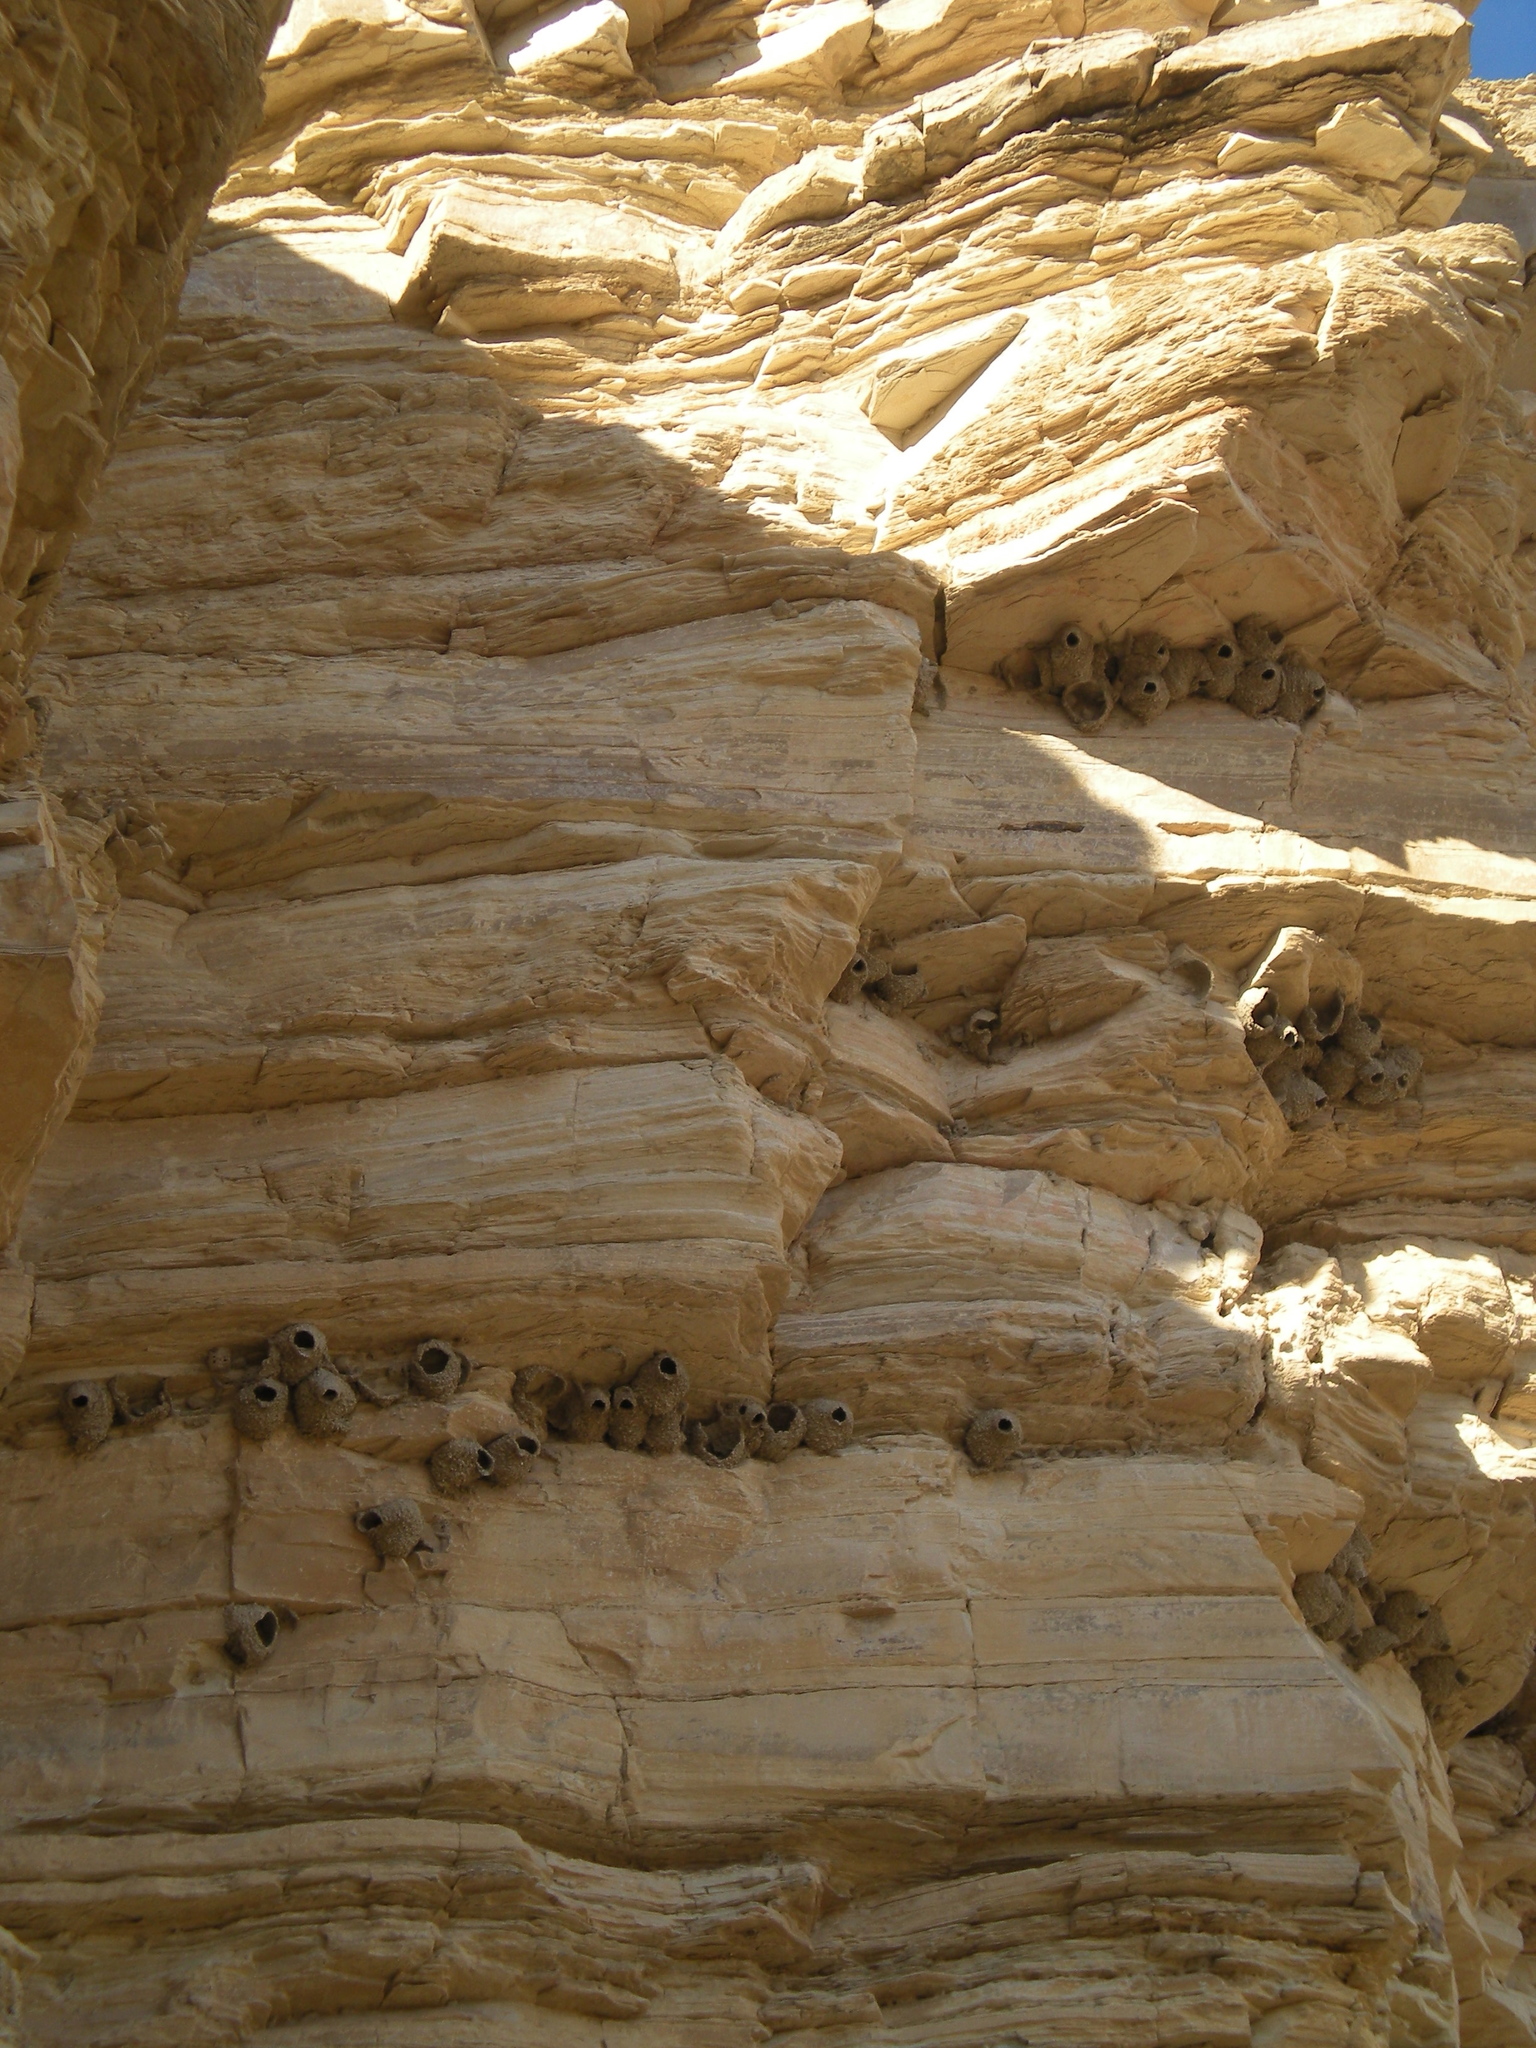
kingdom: Animalia
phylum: Chordata
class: Aves
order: Passeriformes
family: Hirundinidae
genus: Petrochelidon
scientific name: Petrochelidon pyrrhonota
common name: American cliff swallow
